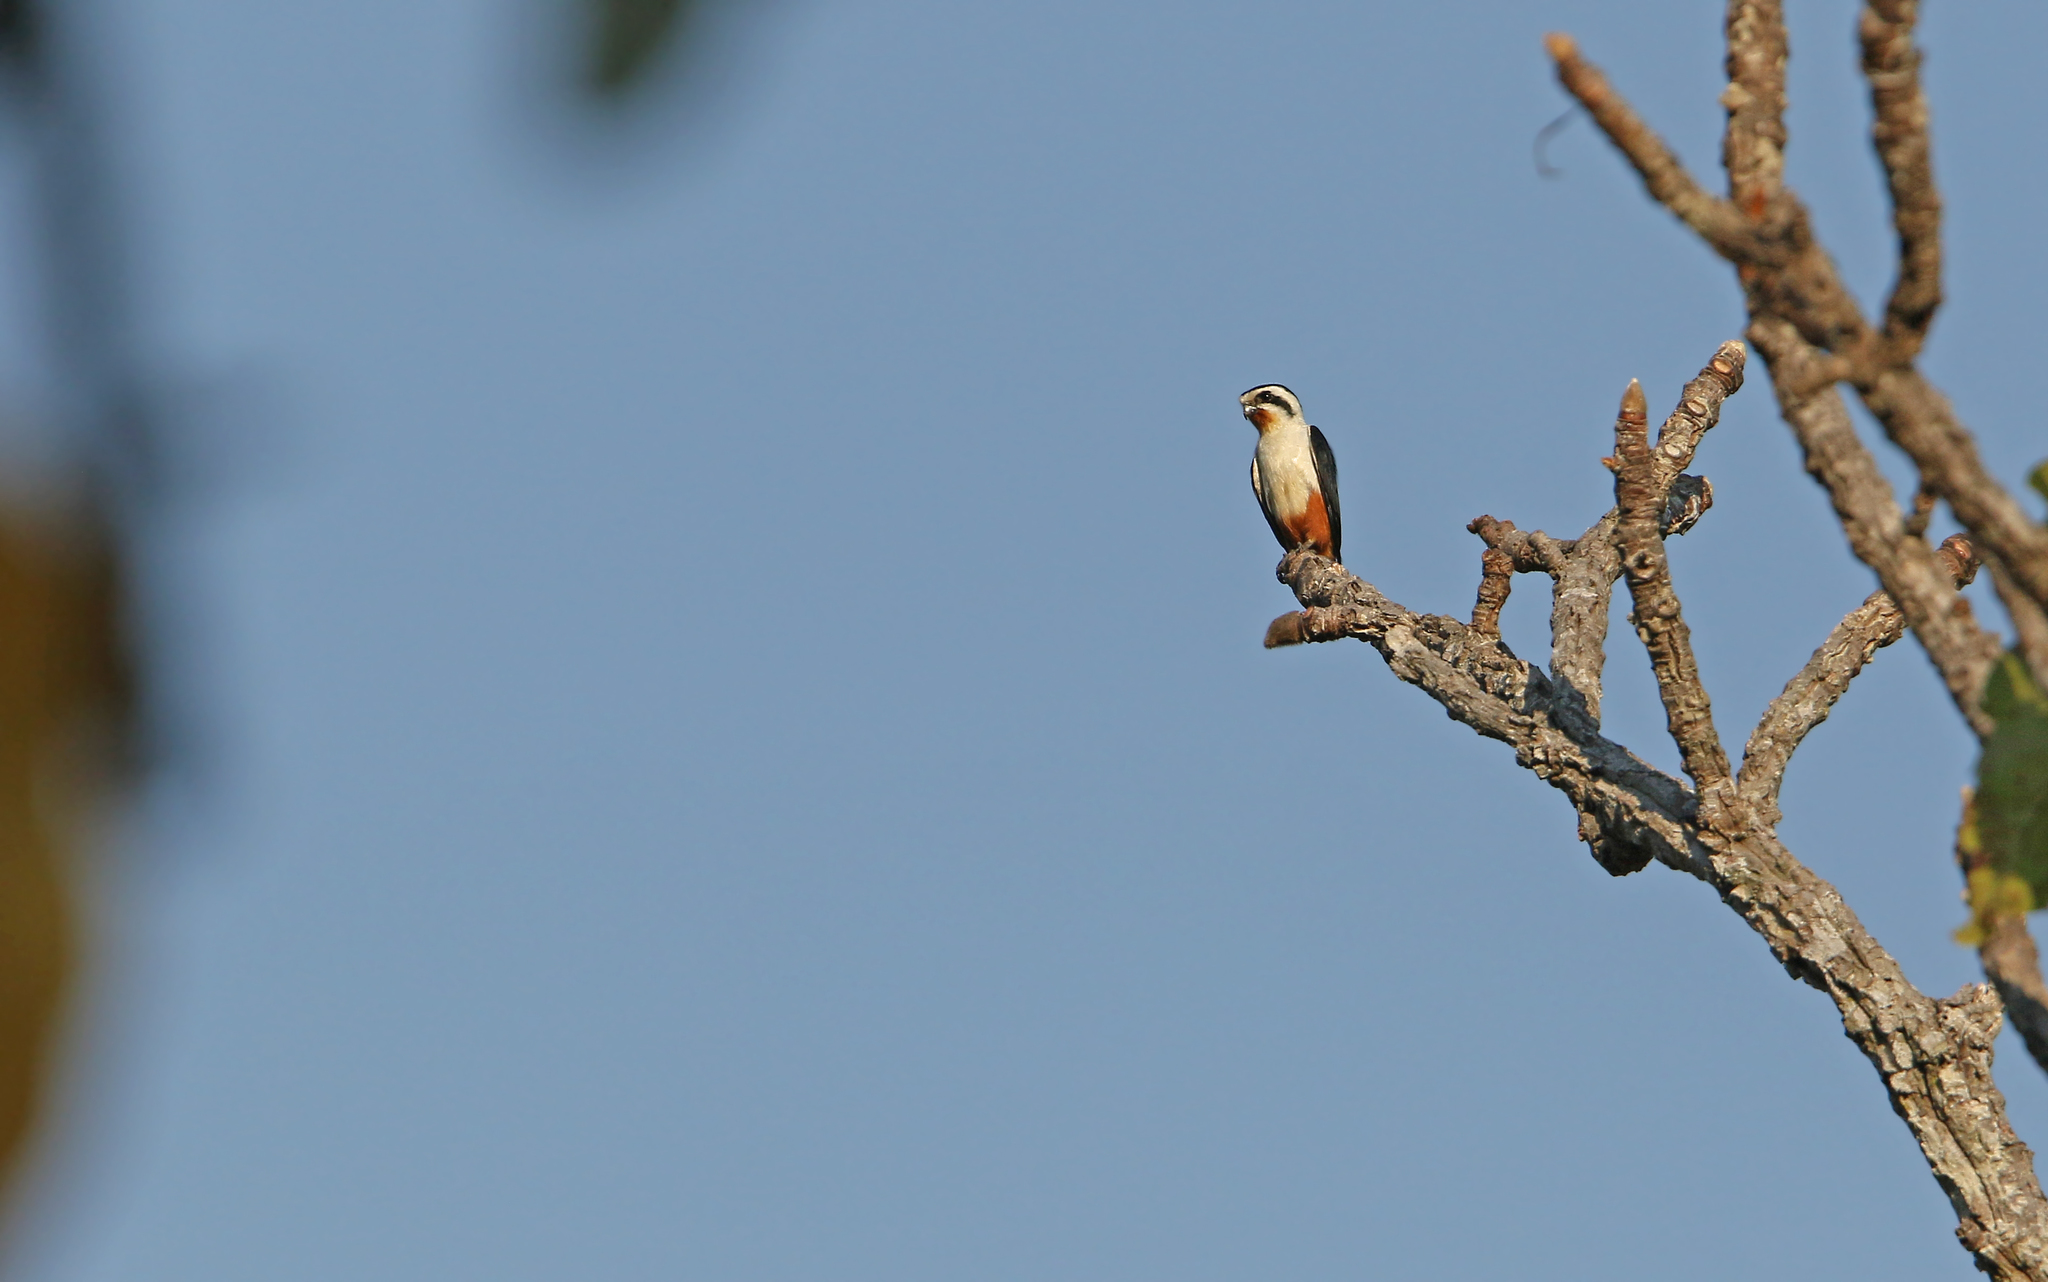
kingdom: Animalia
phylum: Chordata
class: Aves
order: Falconiformes
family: Falconidae
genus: Microhierax
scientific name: Microhierax caerulescens
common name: Collared falconet
